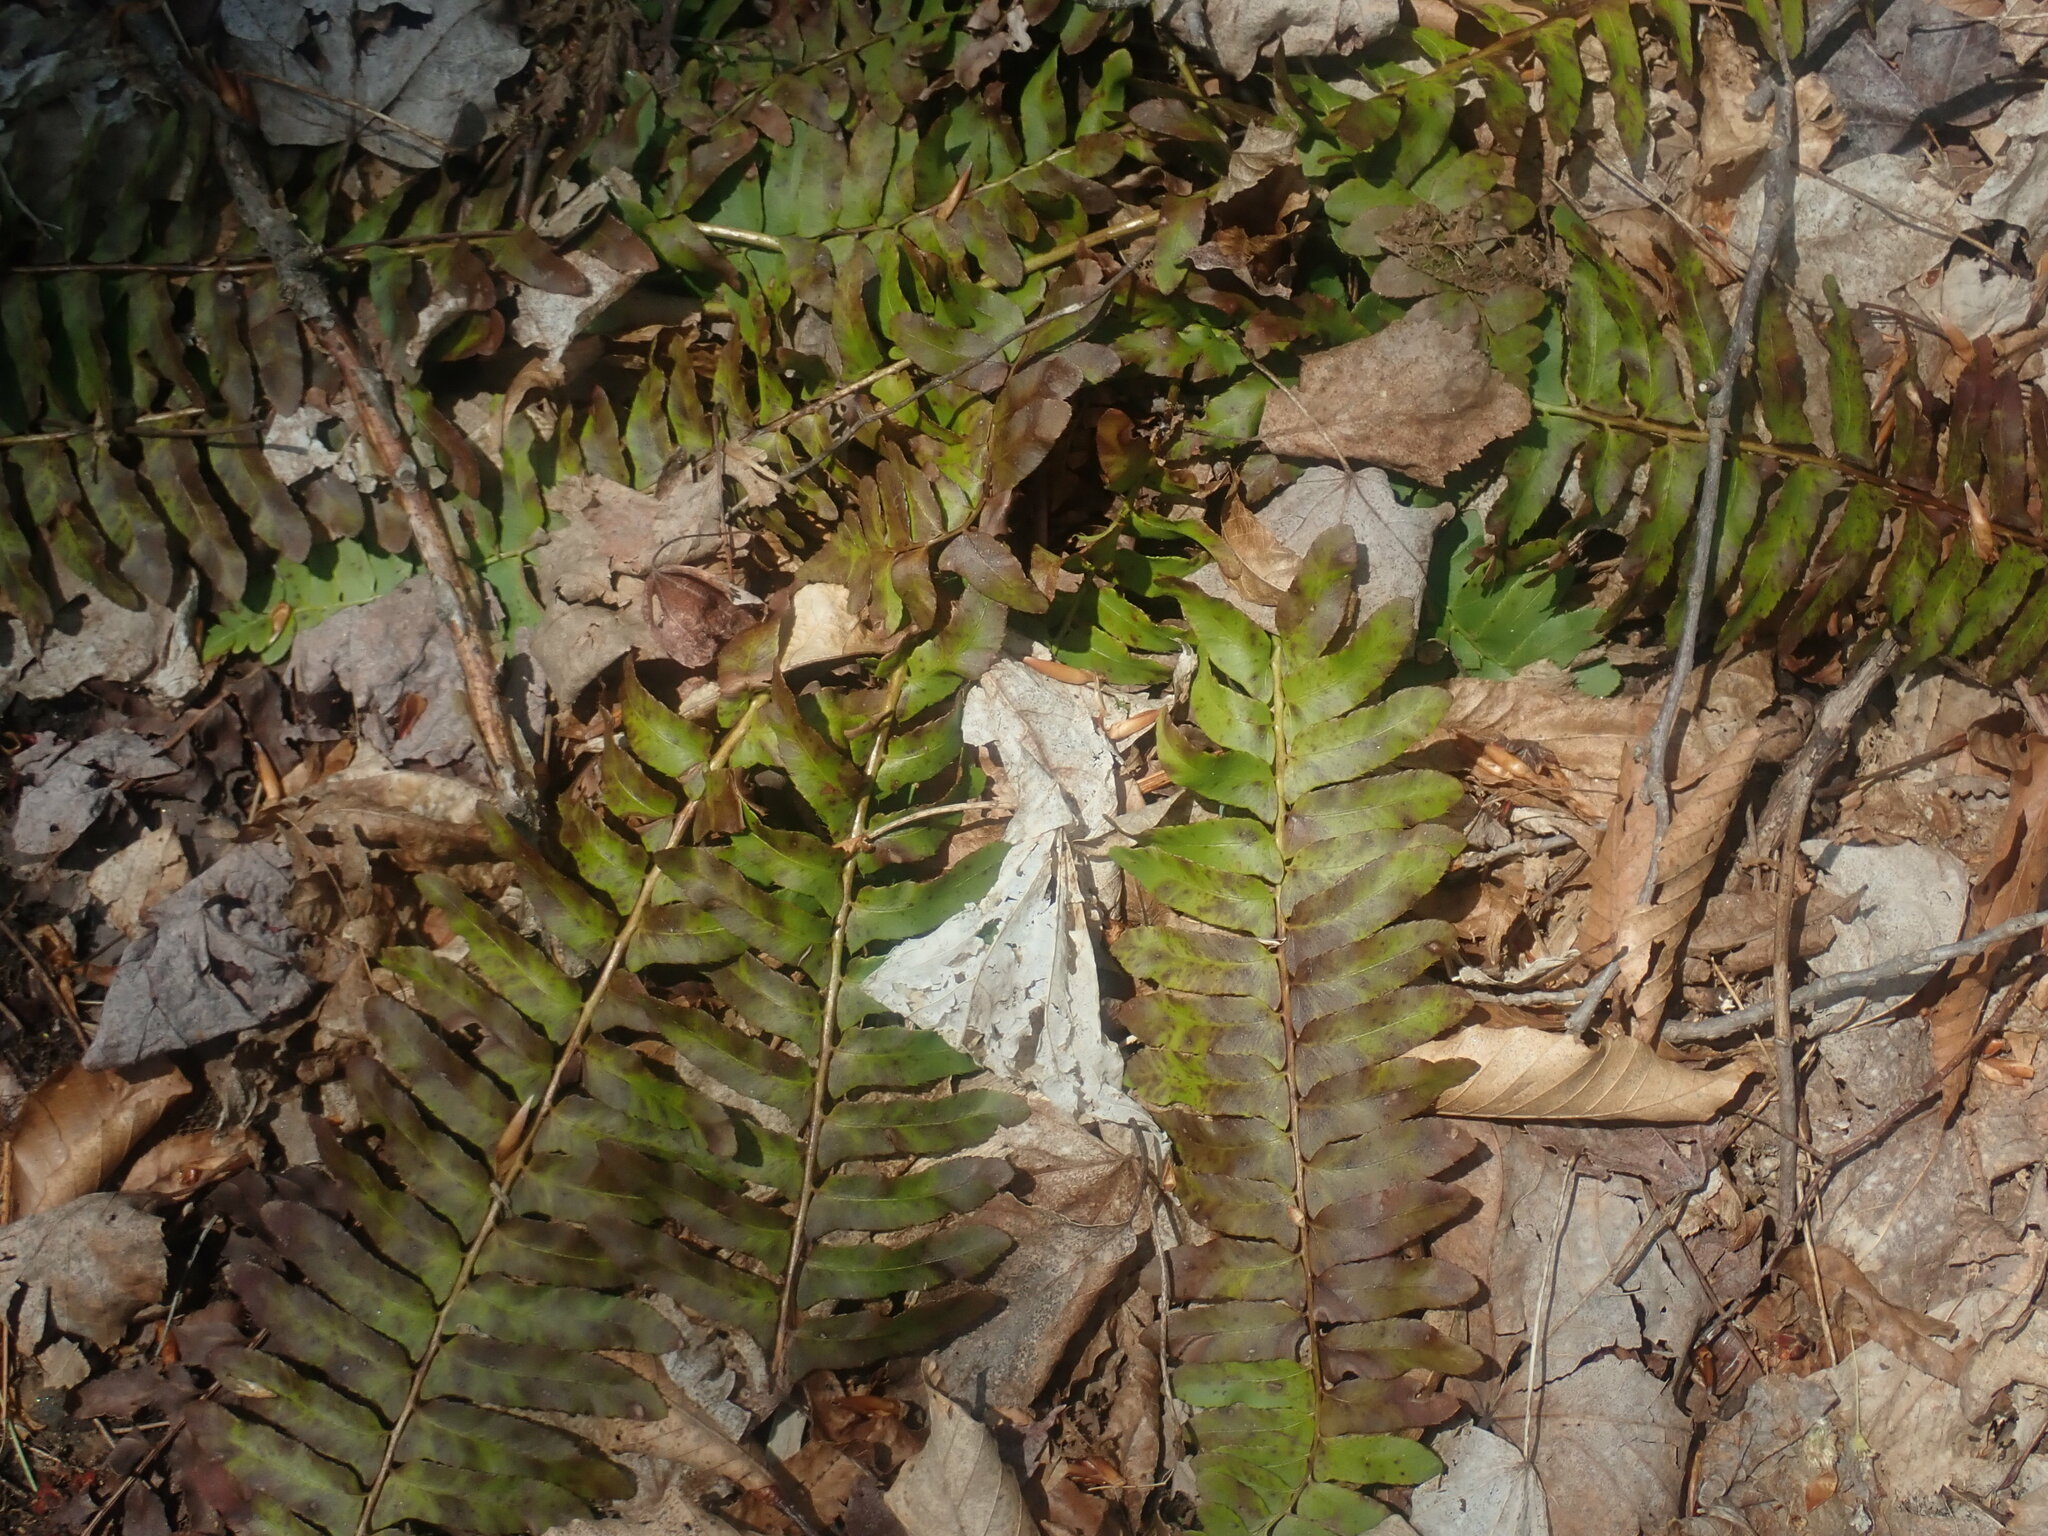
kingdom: Plantae
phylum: Tracheophyta
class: Polypodiopsida
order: Polypodiales
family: Dryopteridaceae
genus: Polystichum
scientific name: Polystichum acrostichoides
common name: Christmas fern
